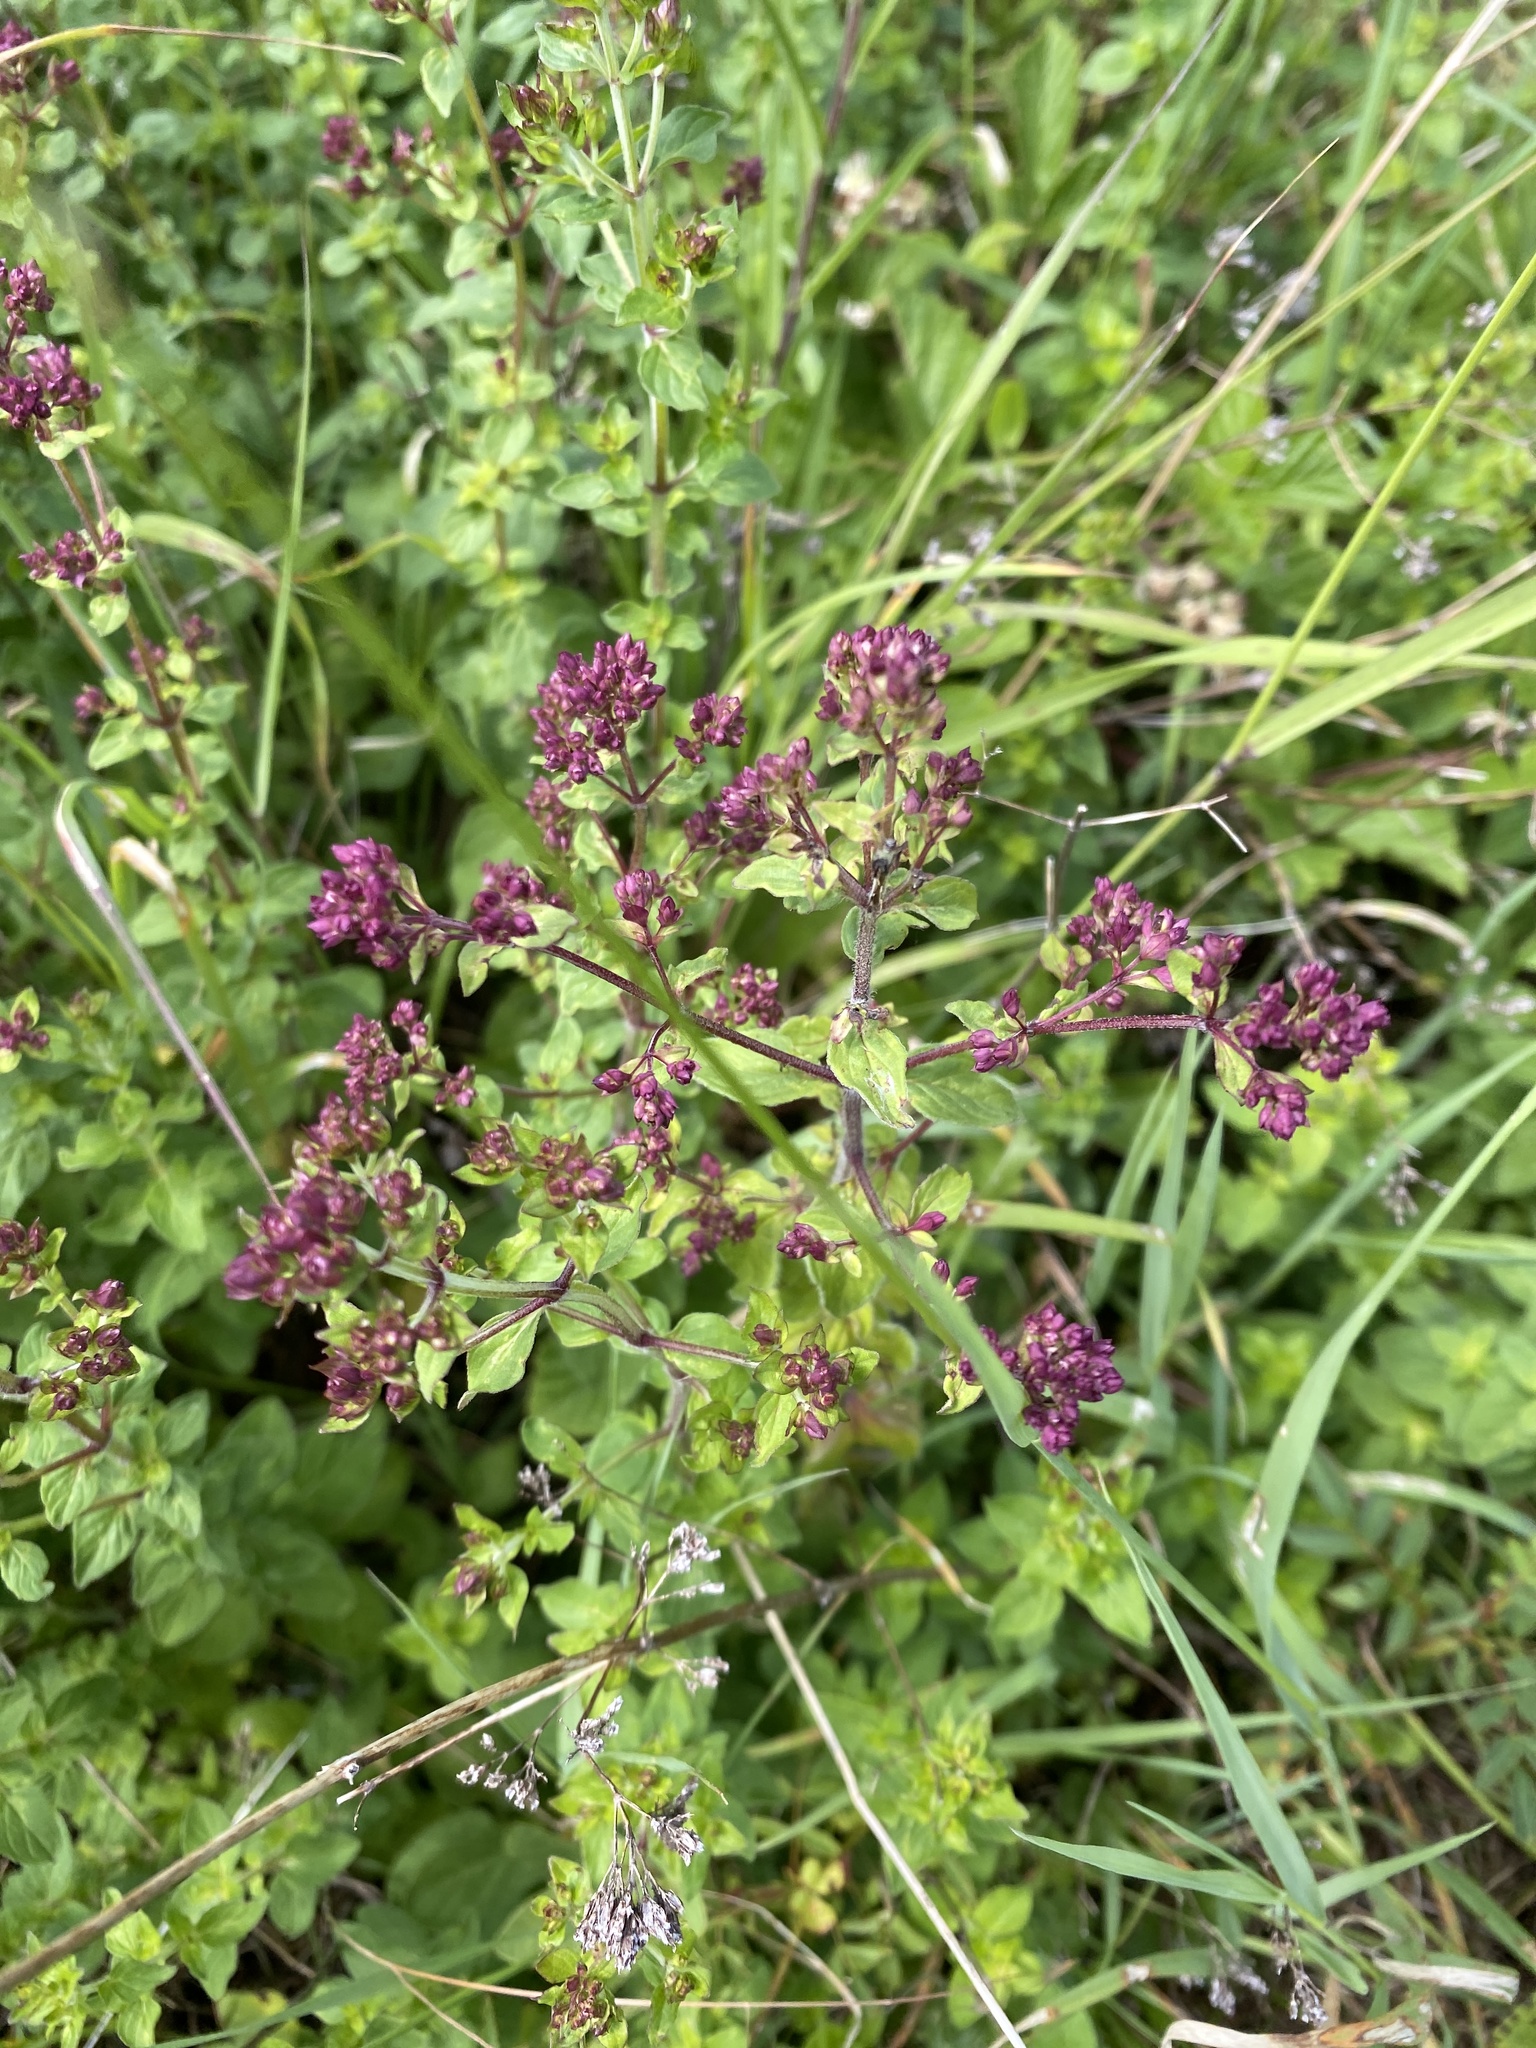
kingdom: Plantae
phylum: Tracheophyta
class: Magnoliopsida
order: Lamiales
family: Lamiaceae
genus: Origanum
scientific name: Origanum vulgare
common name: Wild marjoram
